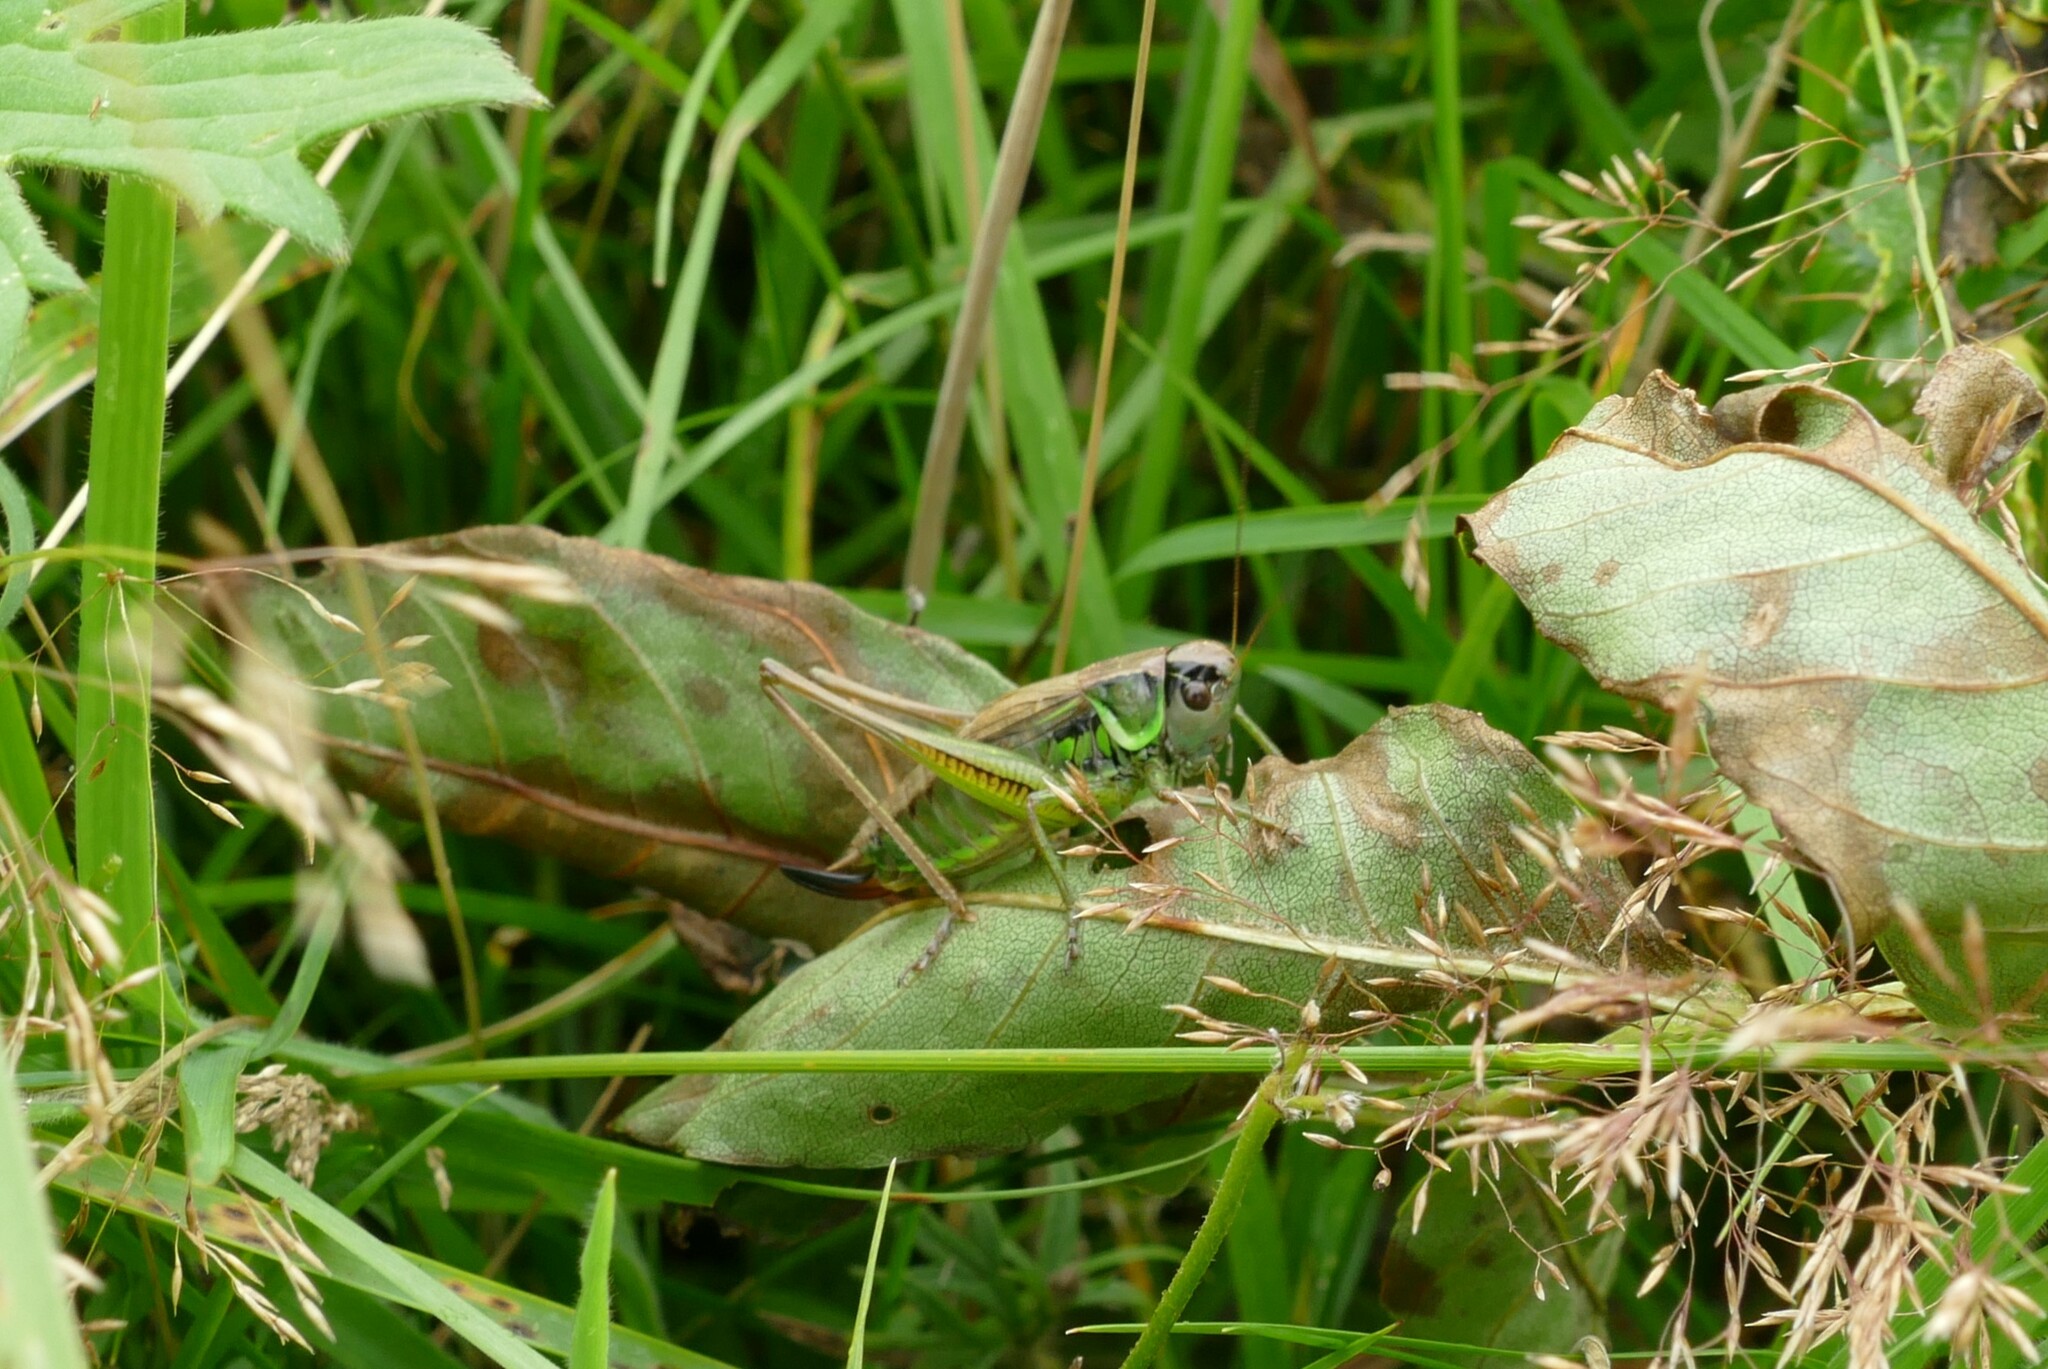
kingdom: Animalia
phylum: Arthropoda
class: Insecta
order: Orthoptera
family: Tettigoniidae
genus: Roeseliana
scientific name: Roeseliana roeselii
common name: Roesel's bush cricket
